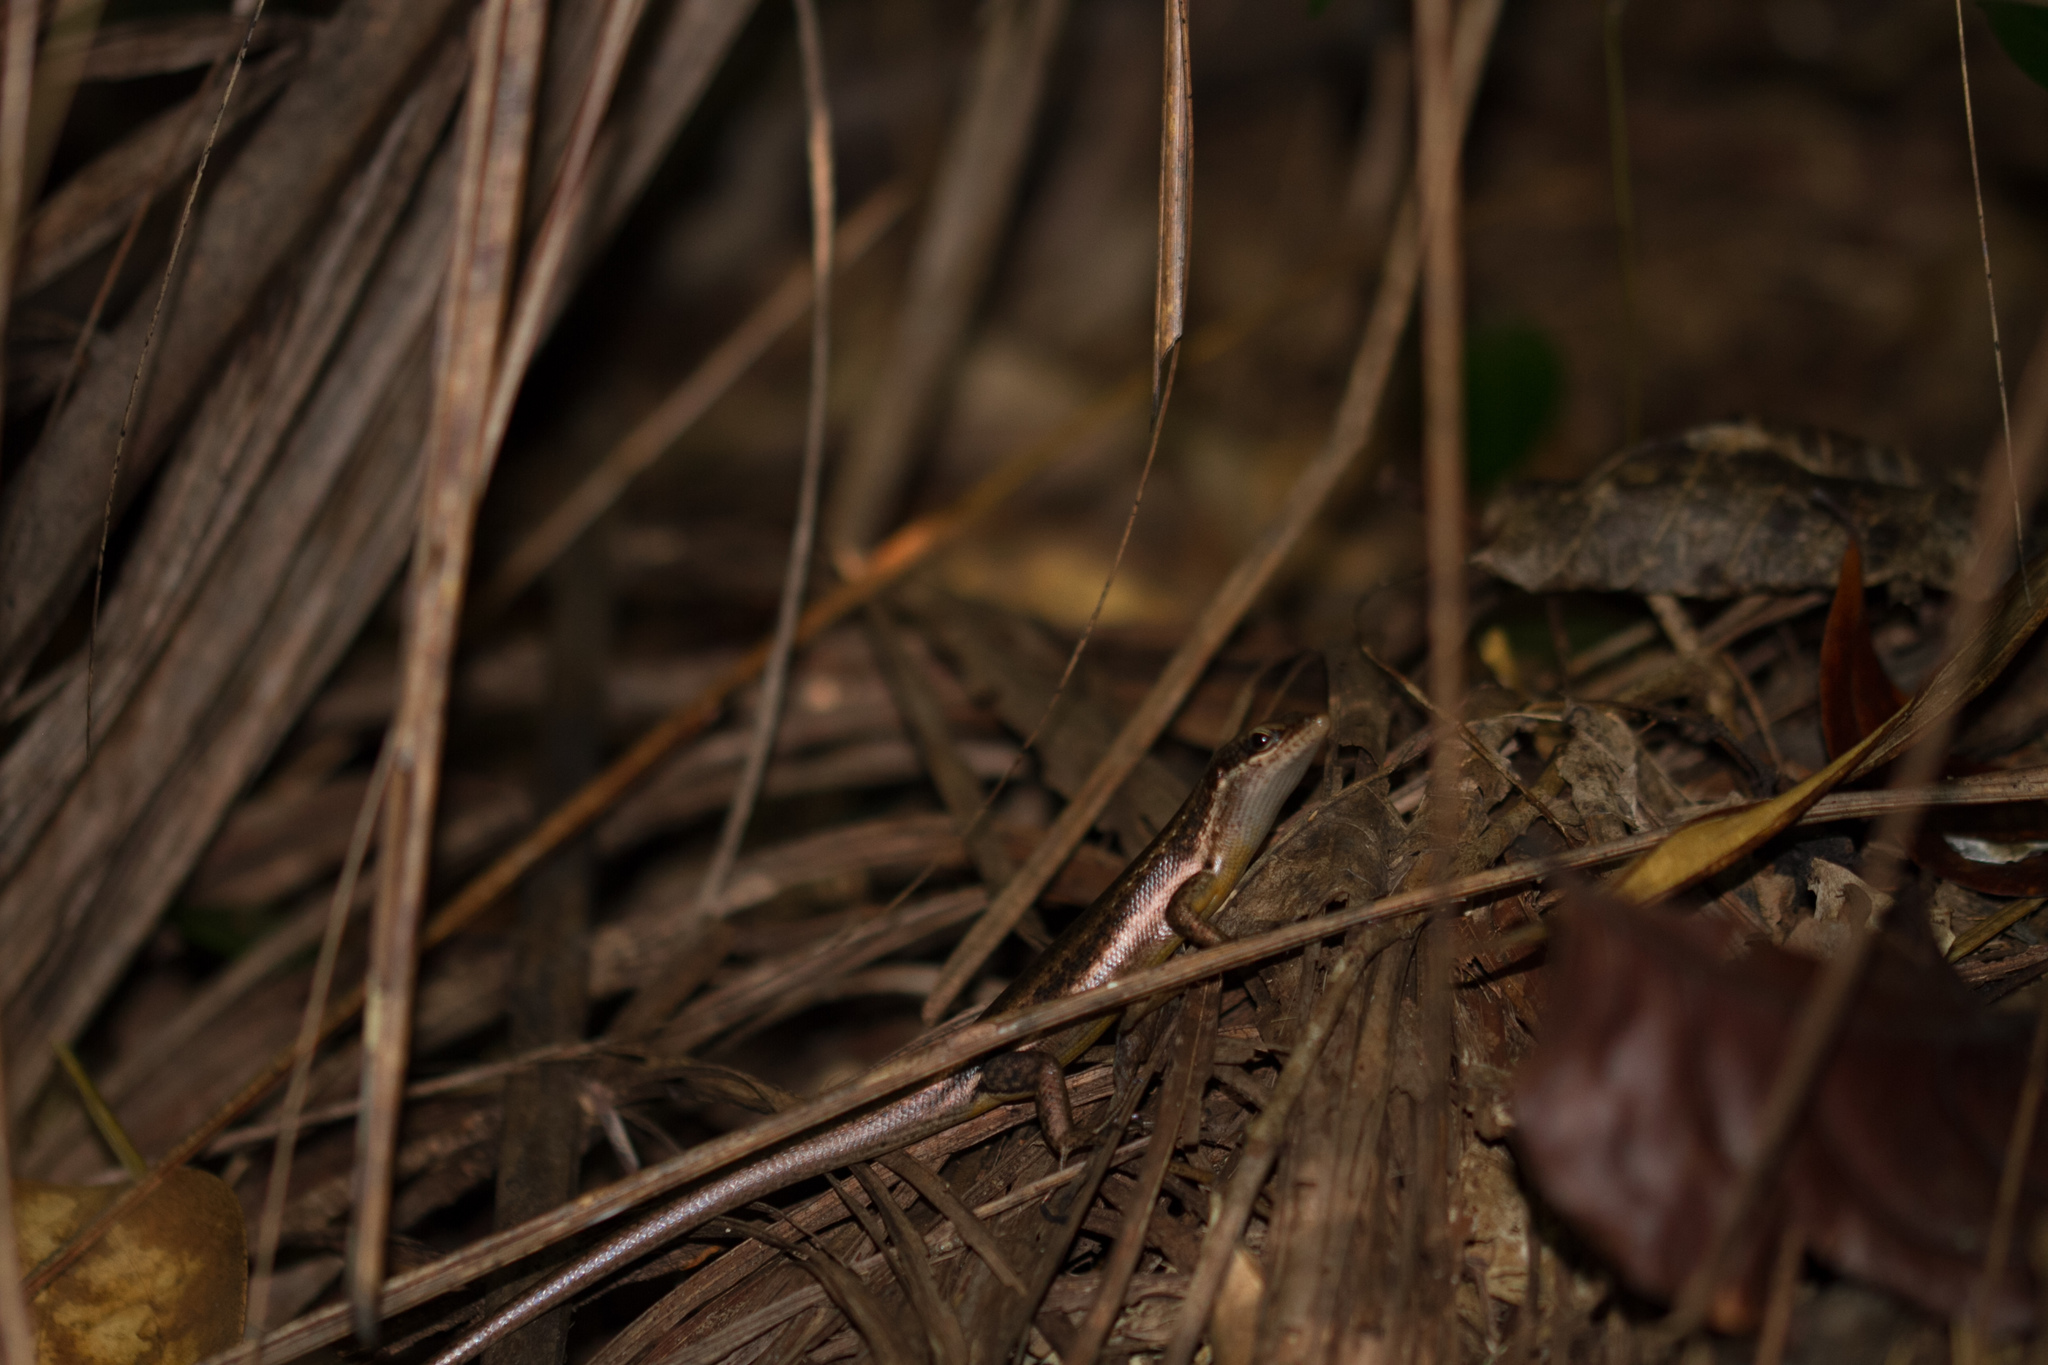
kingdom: Animalia
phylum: Chordata
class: Squamata
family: Scincidae
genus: Trachylepis
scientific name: Trachylepis sechellensis
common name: Seychelles skink
